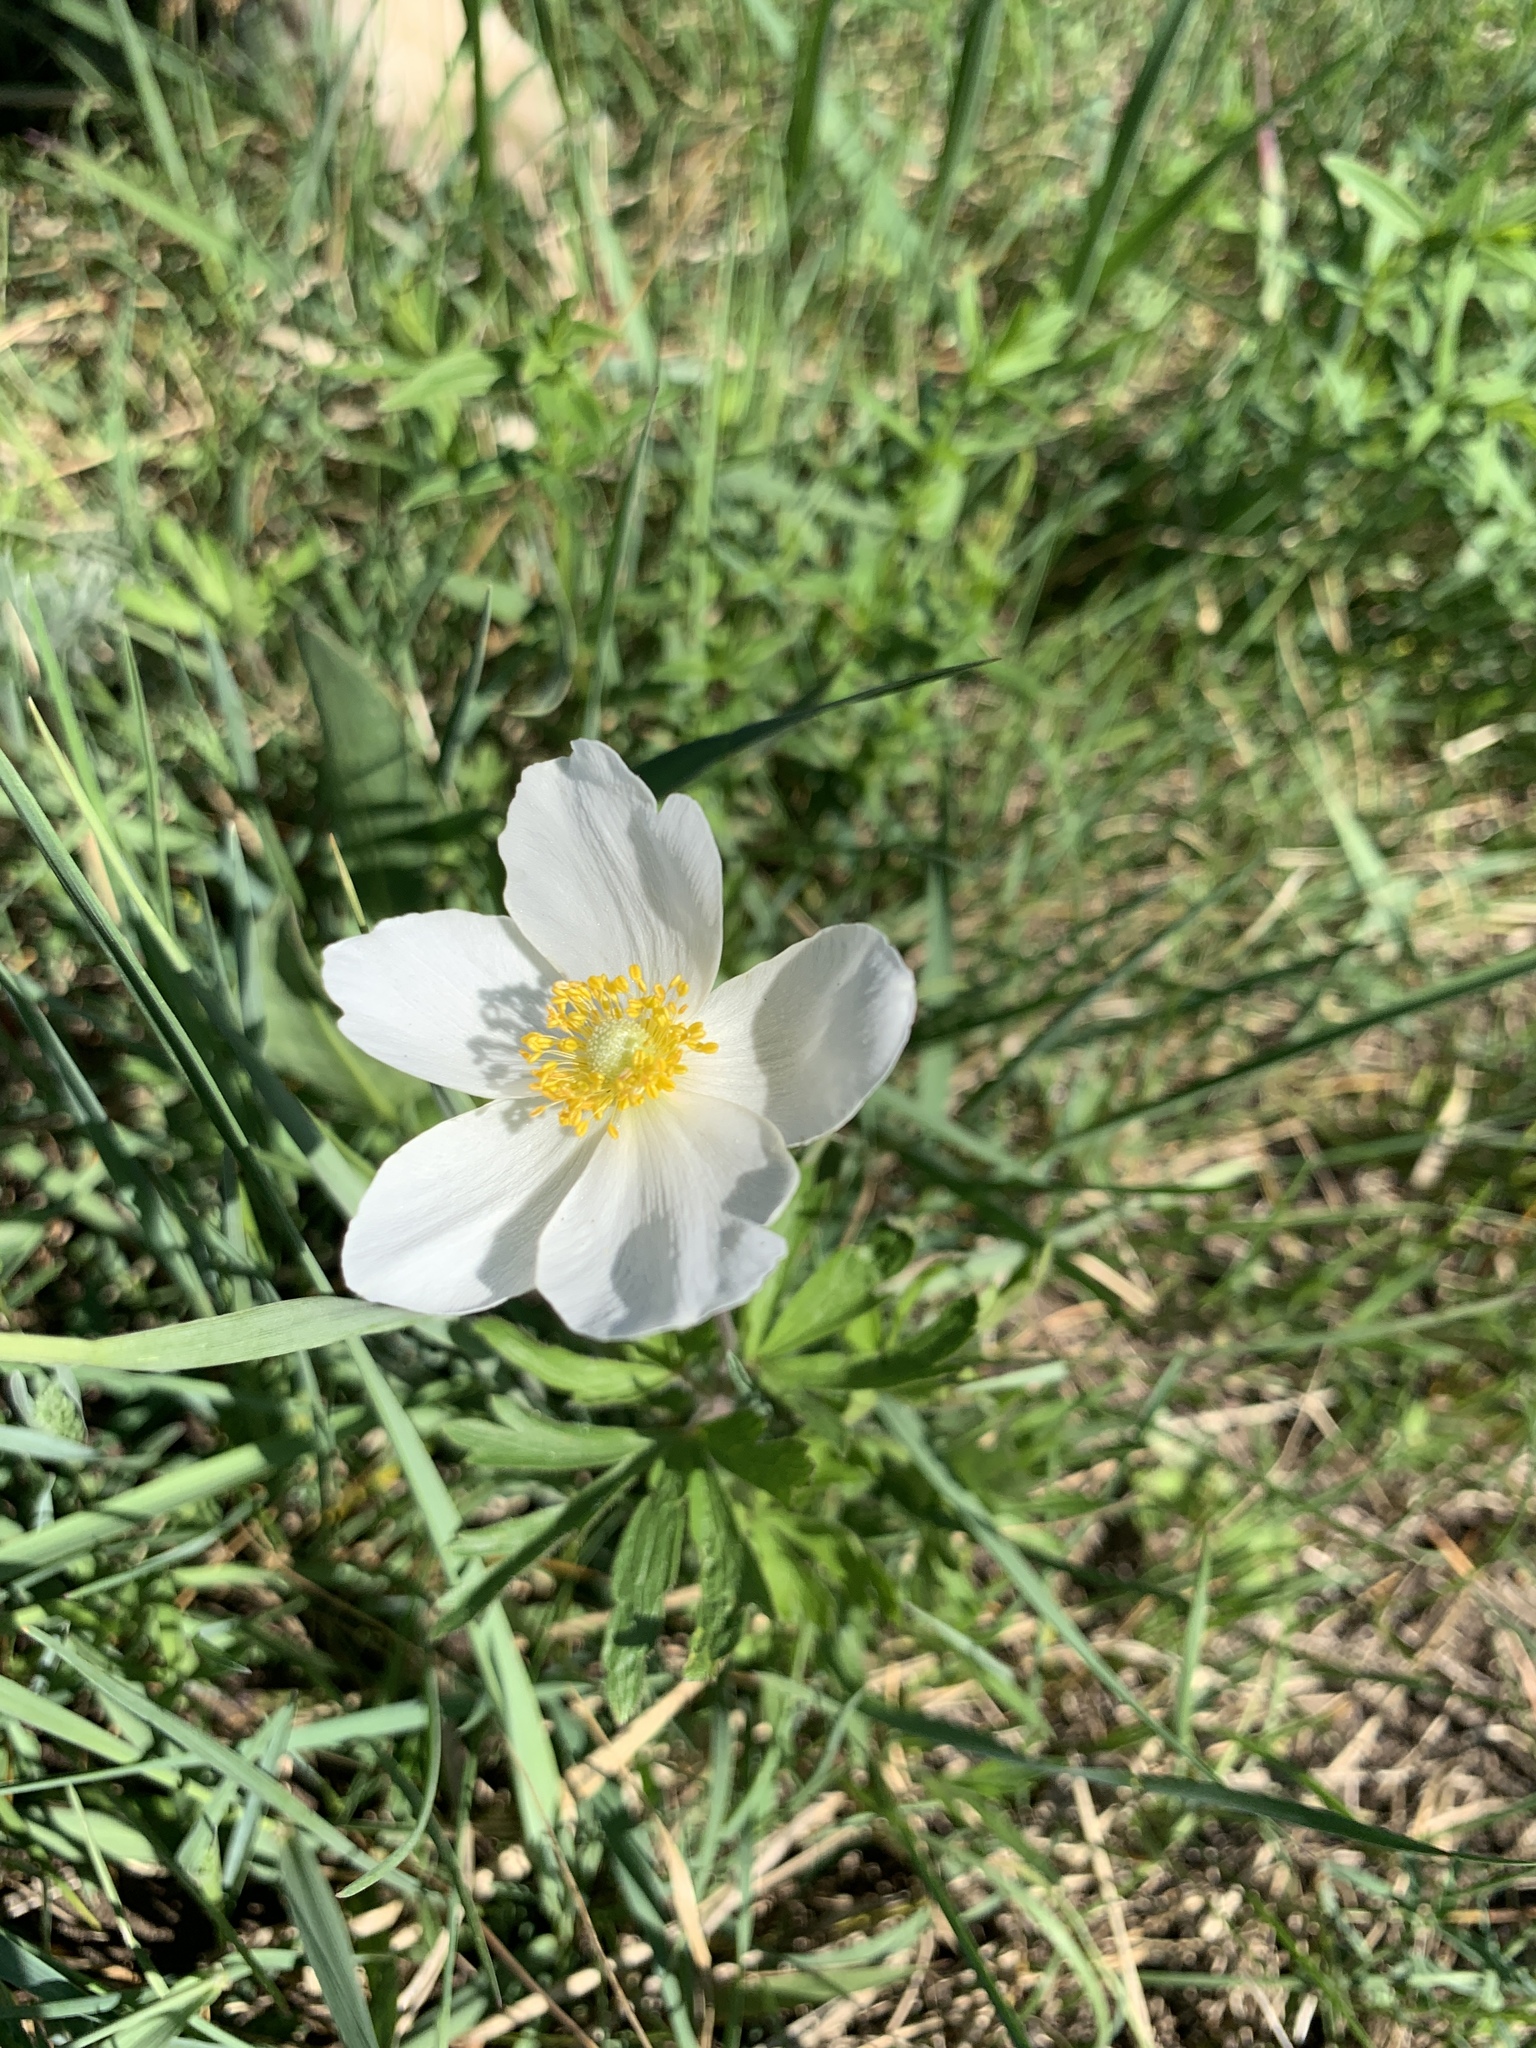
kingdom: Plantae
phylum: Tracheophyta
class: Magnoliopsida
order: Ranunculales
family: Ranunculaceae
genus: Anemone
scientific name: Anemone sylvestris
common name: Snowdrop anemone
